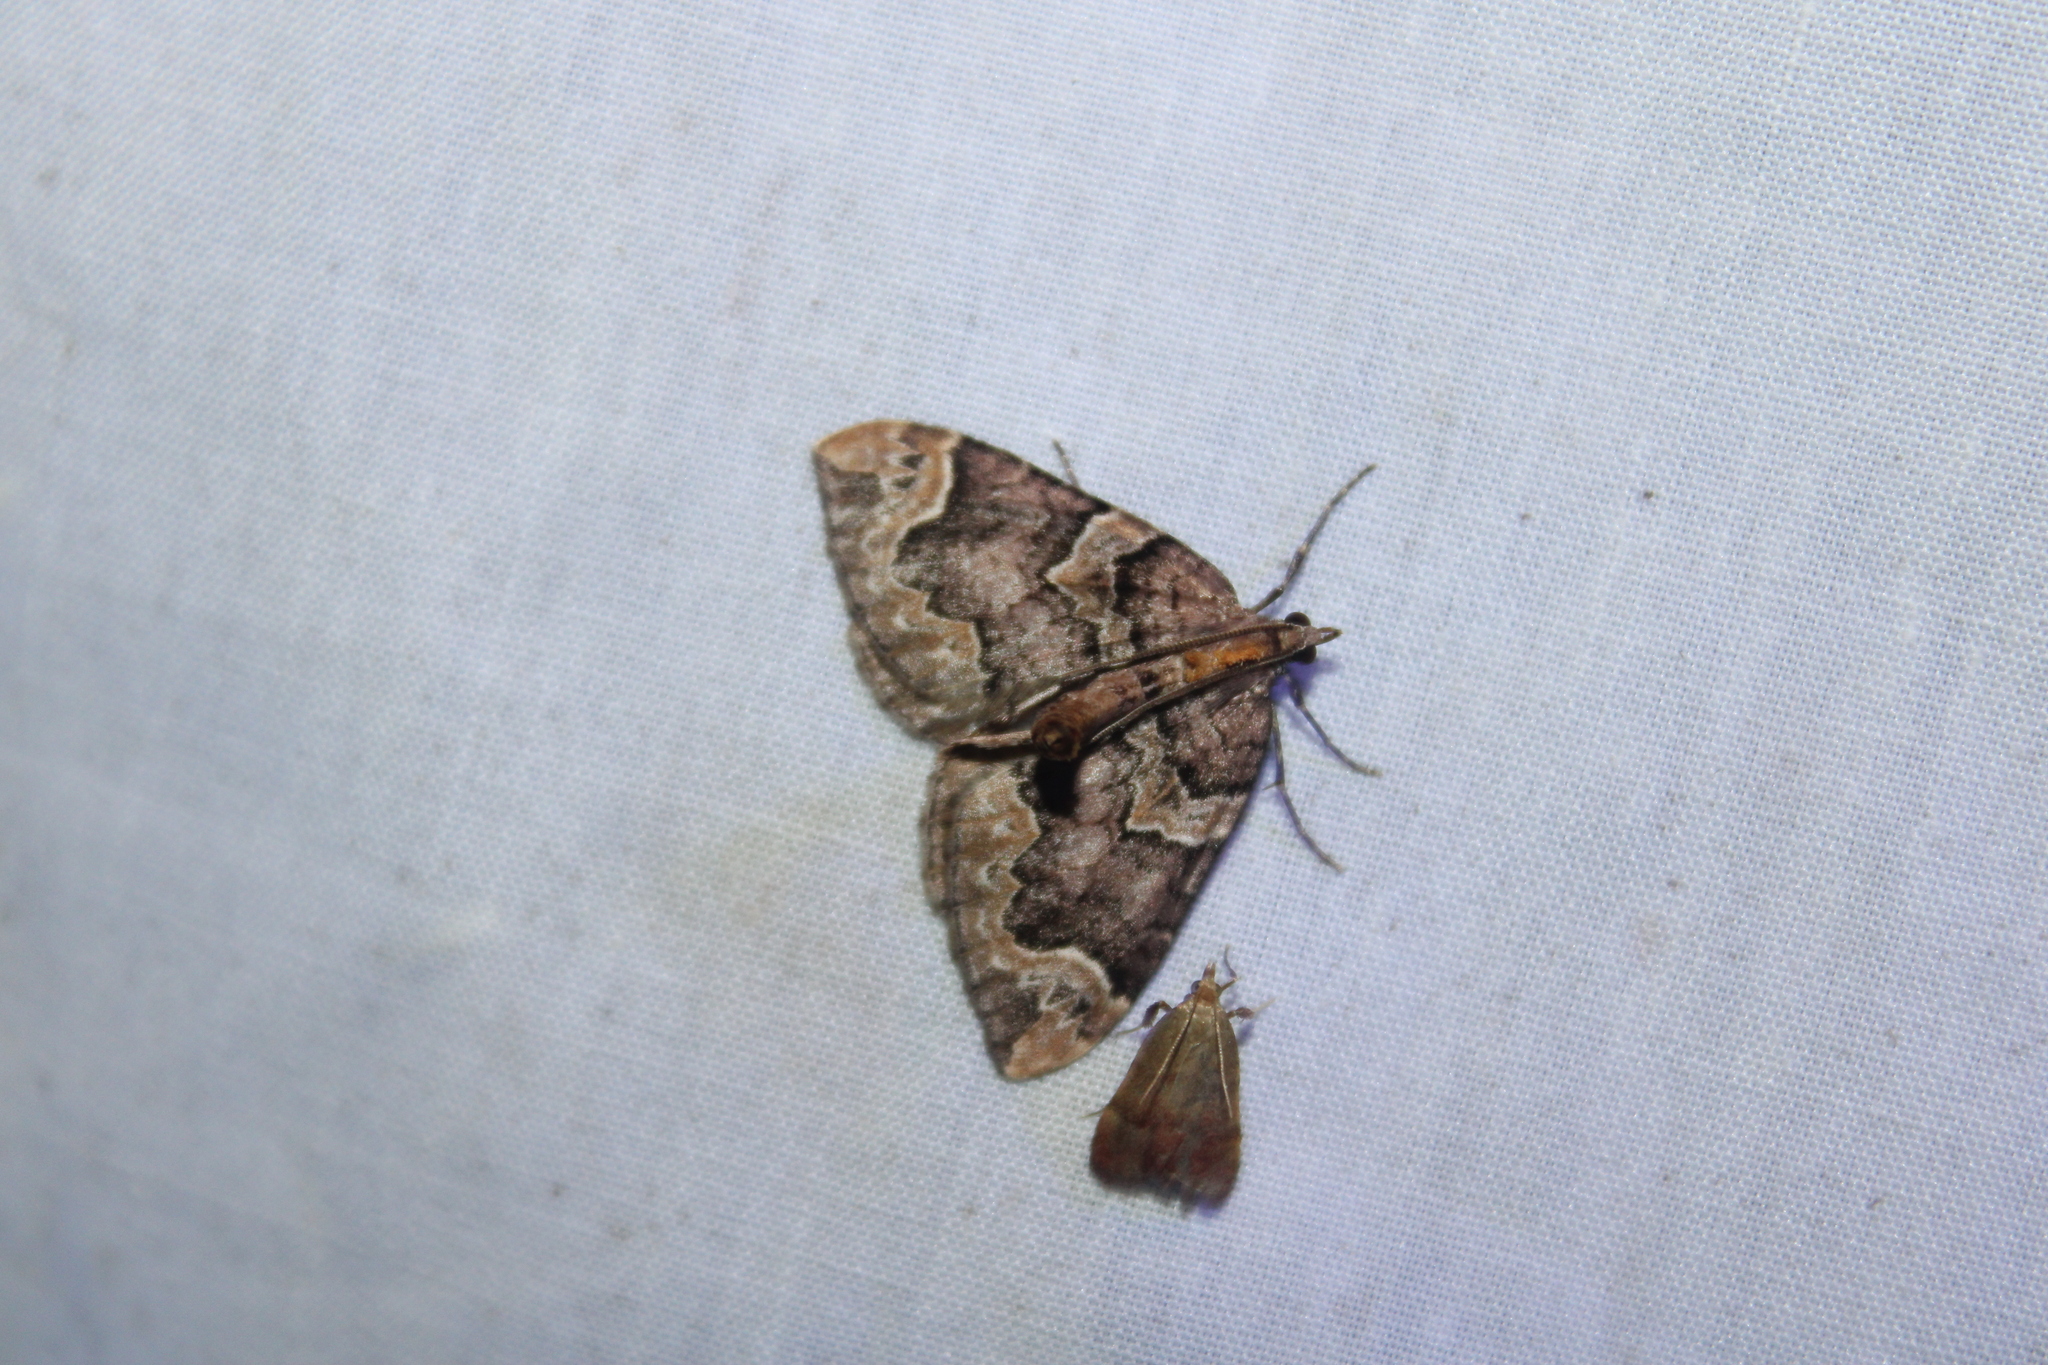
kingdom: Animalia
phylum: Arthropoda
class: Insecta
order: Lepidoptera
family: Geometridae
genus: Eulithis
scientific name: Eulithis serrataria
